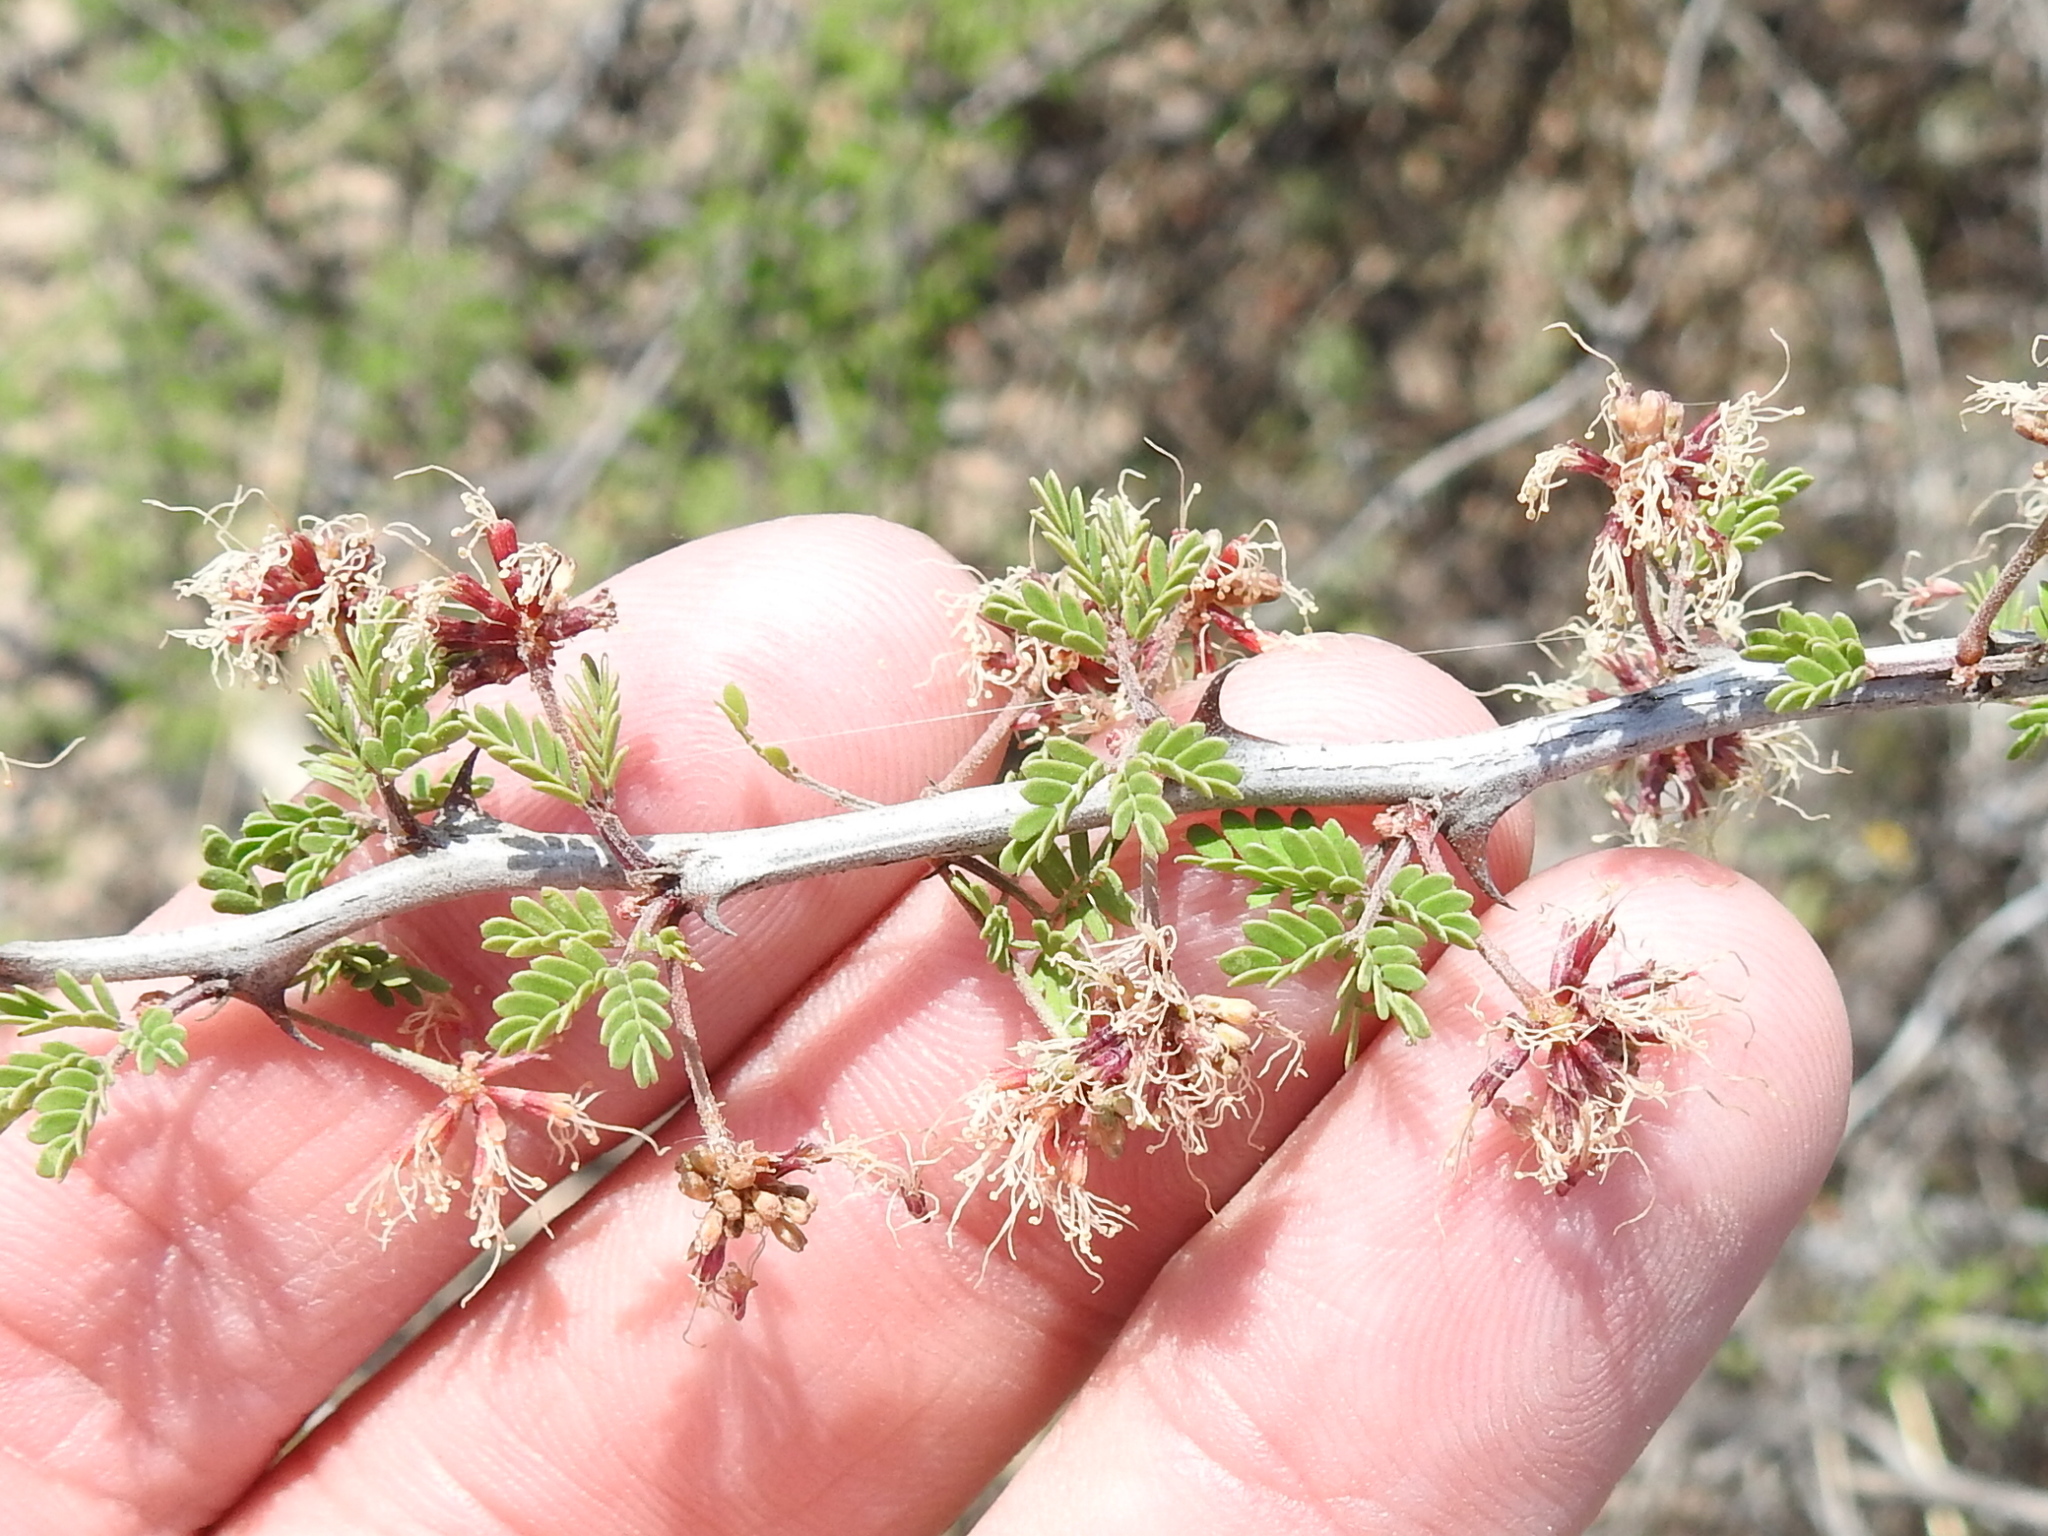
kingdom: Plantae
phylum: Tracheophyta
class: Magnoliopsida
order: Fabales
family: Fabaceae
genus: Calliandra
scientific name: Calliandra conferta
